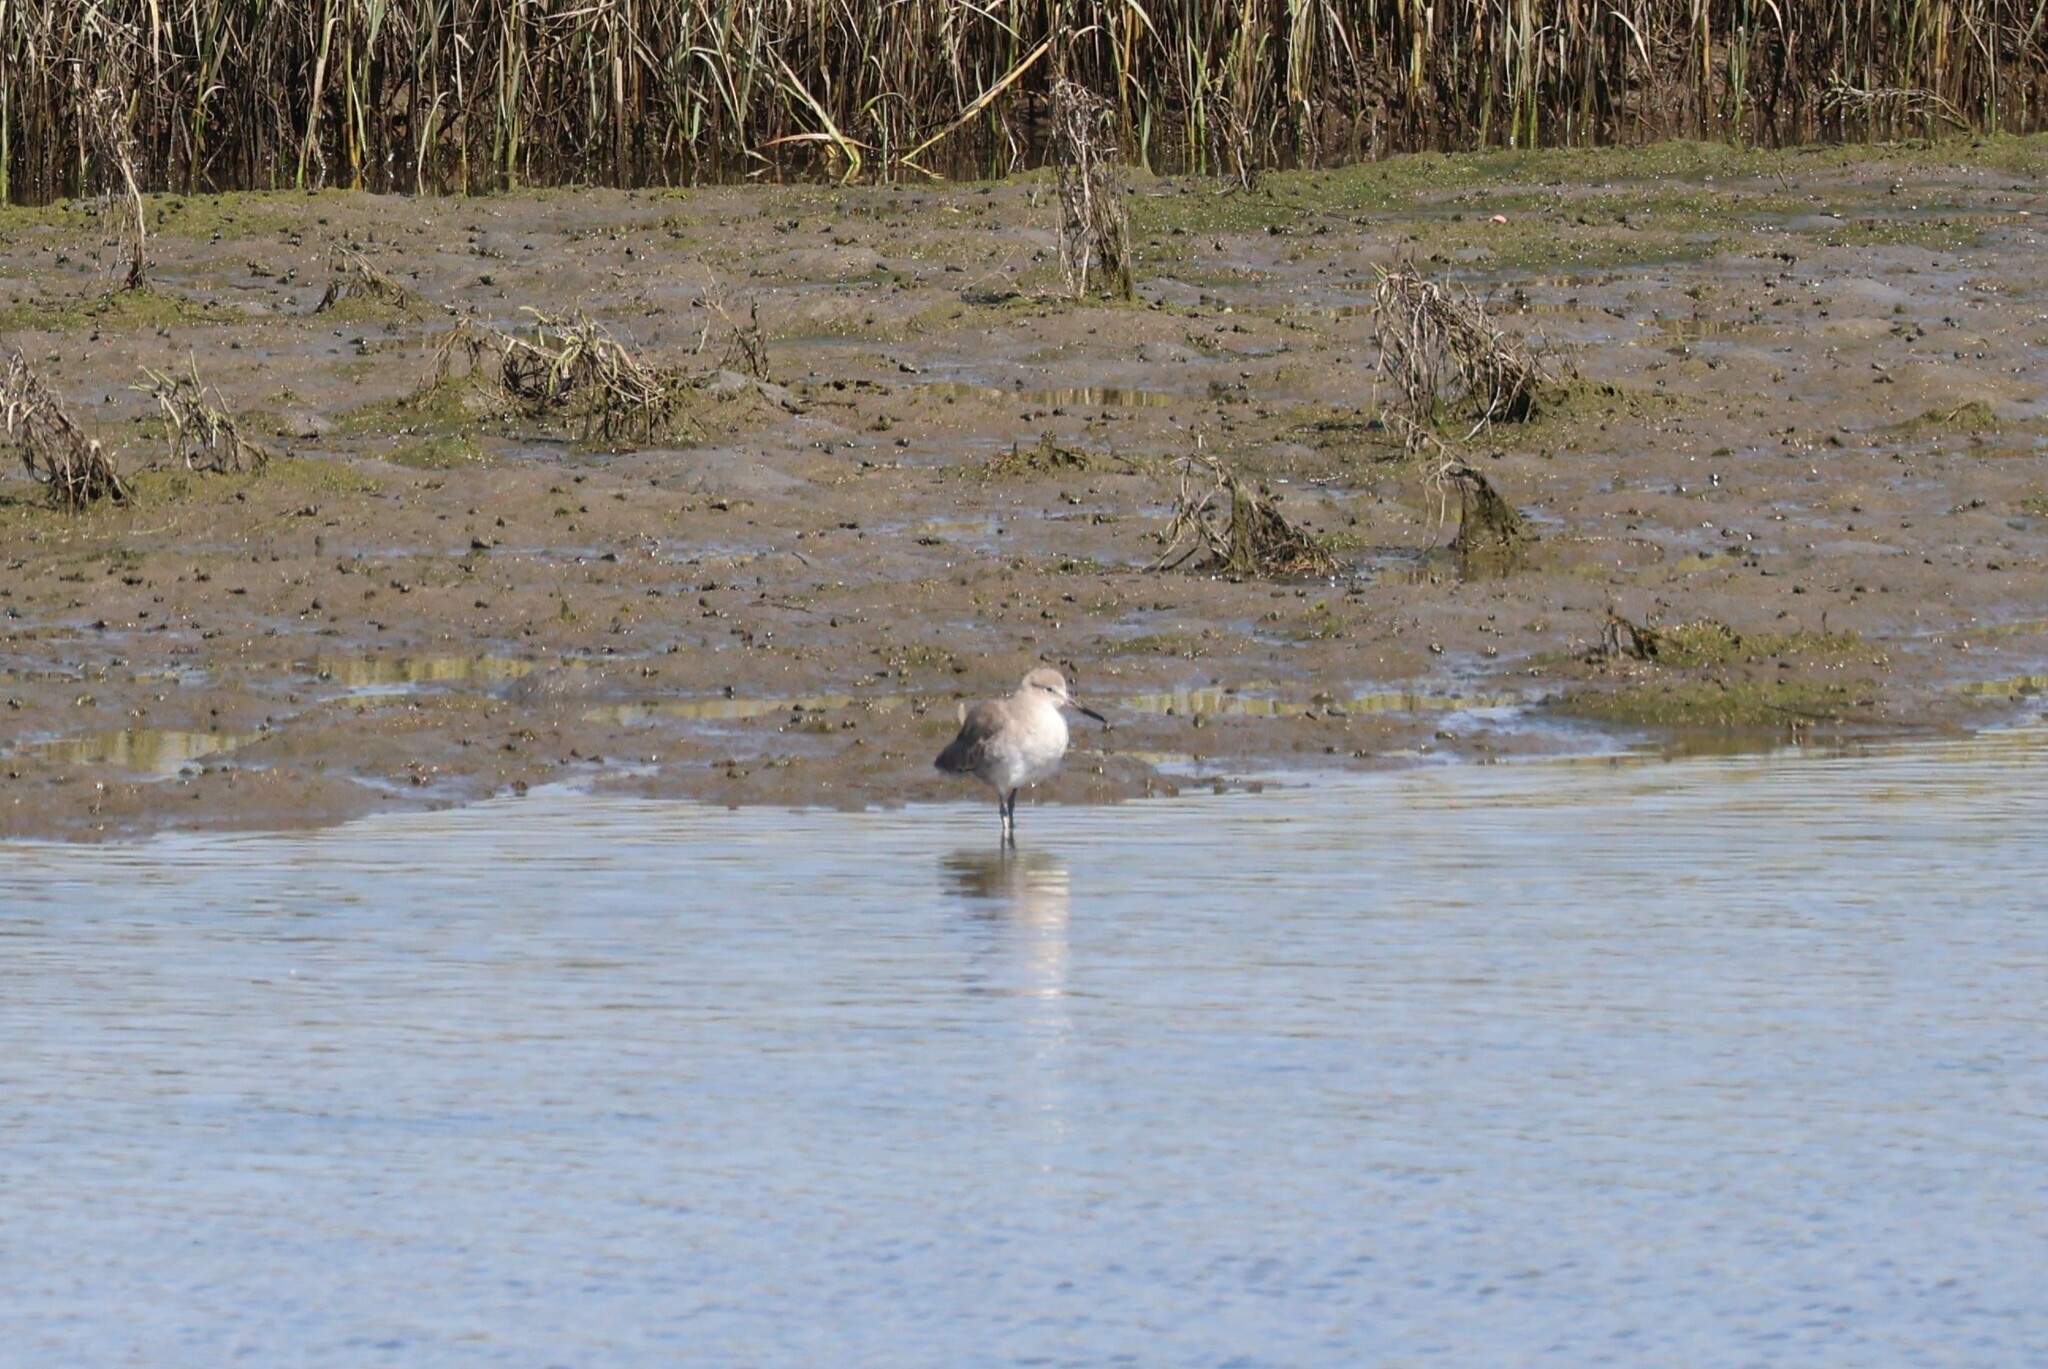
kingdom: Animalia
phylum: Chordata
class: Aves
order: Charadriiformes
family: Scolopacidae
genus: Tringa
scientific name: Tringa semipalmata
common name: Willet
